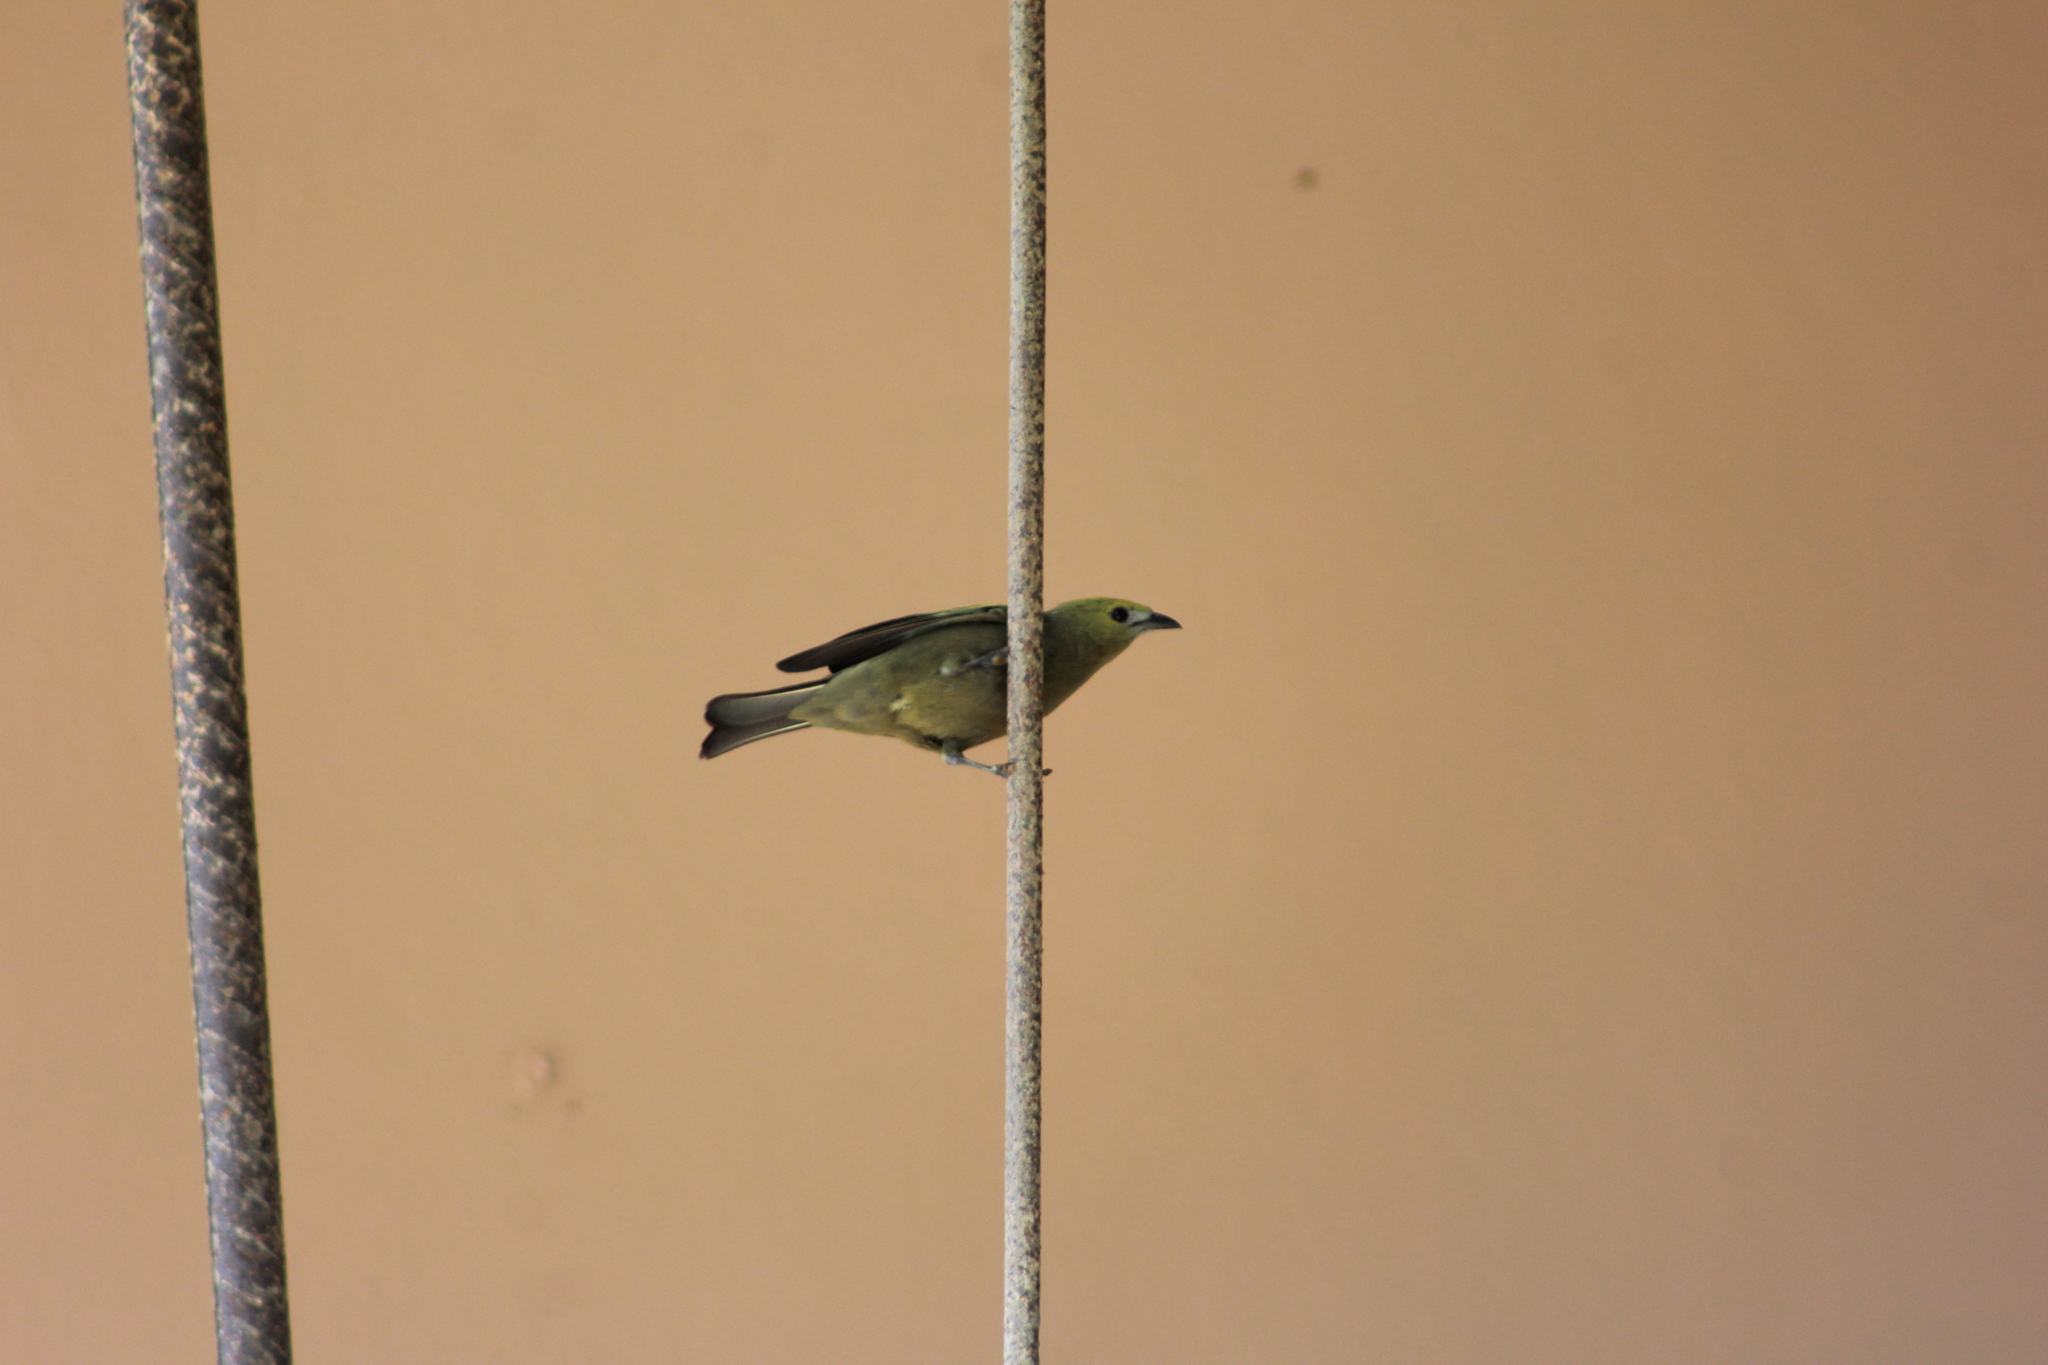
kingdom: Animalia
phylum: Chordata
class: Aves
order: Passeriformes
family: Thraupidae
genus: Thraupis
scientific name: Thraupis palmarum
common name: Palm tanager
